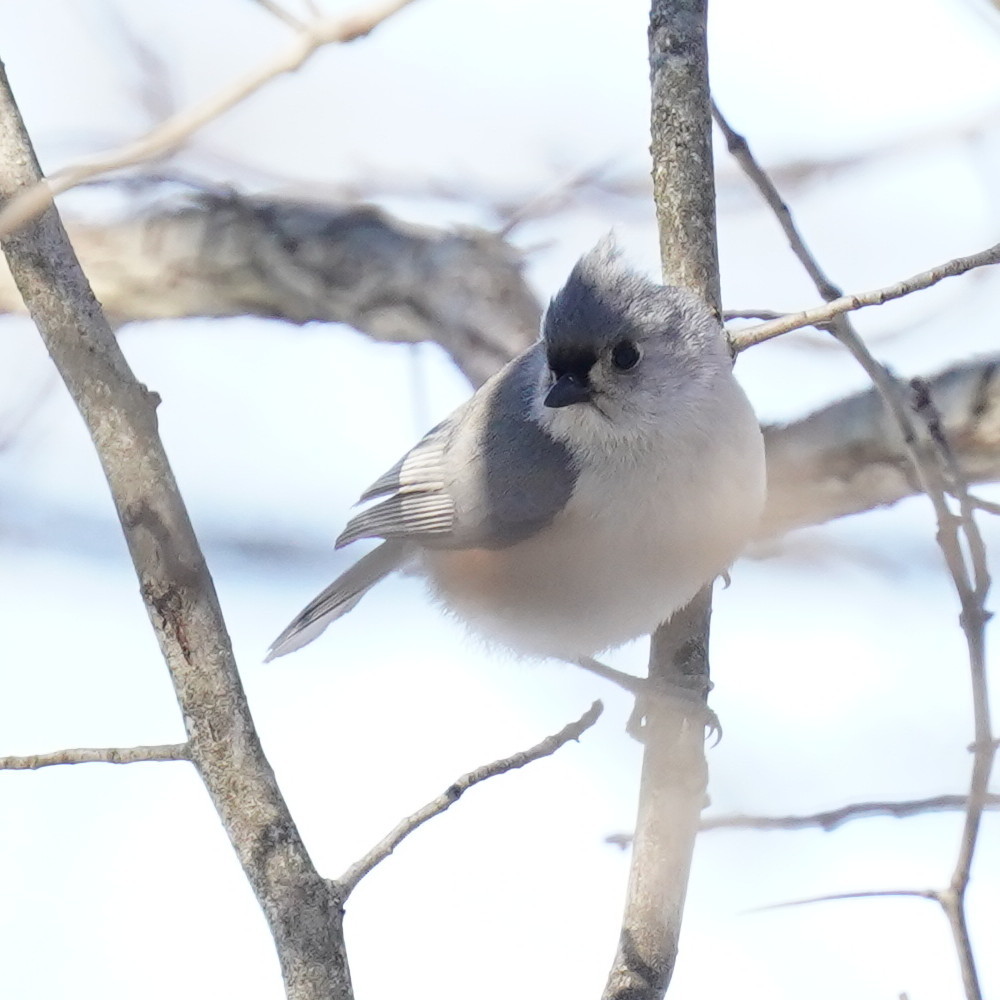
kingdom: Animalia
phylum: Chordata
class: Aves
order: Passeriformes
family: Paridae
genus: Baeolophus
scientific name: Baeolophus bicolor
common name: Tufted titmouse
